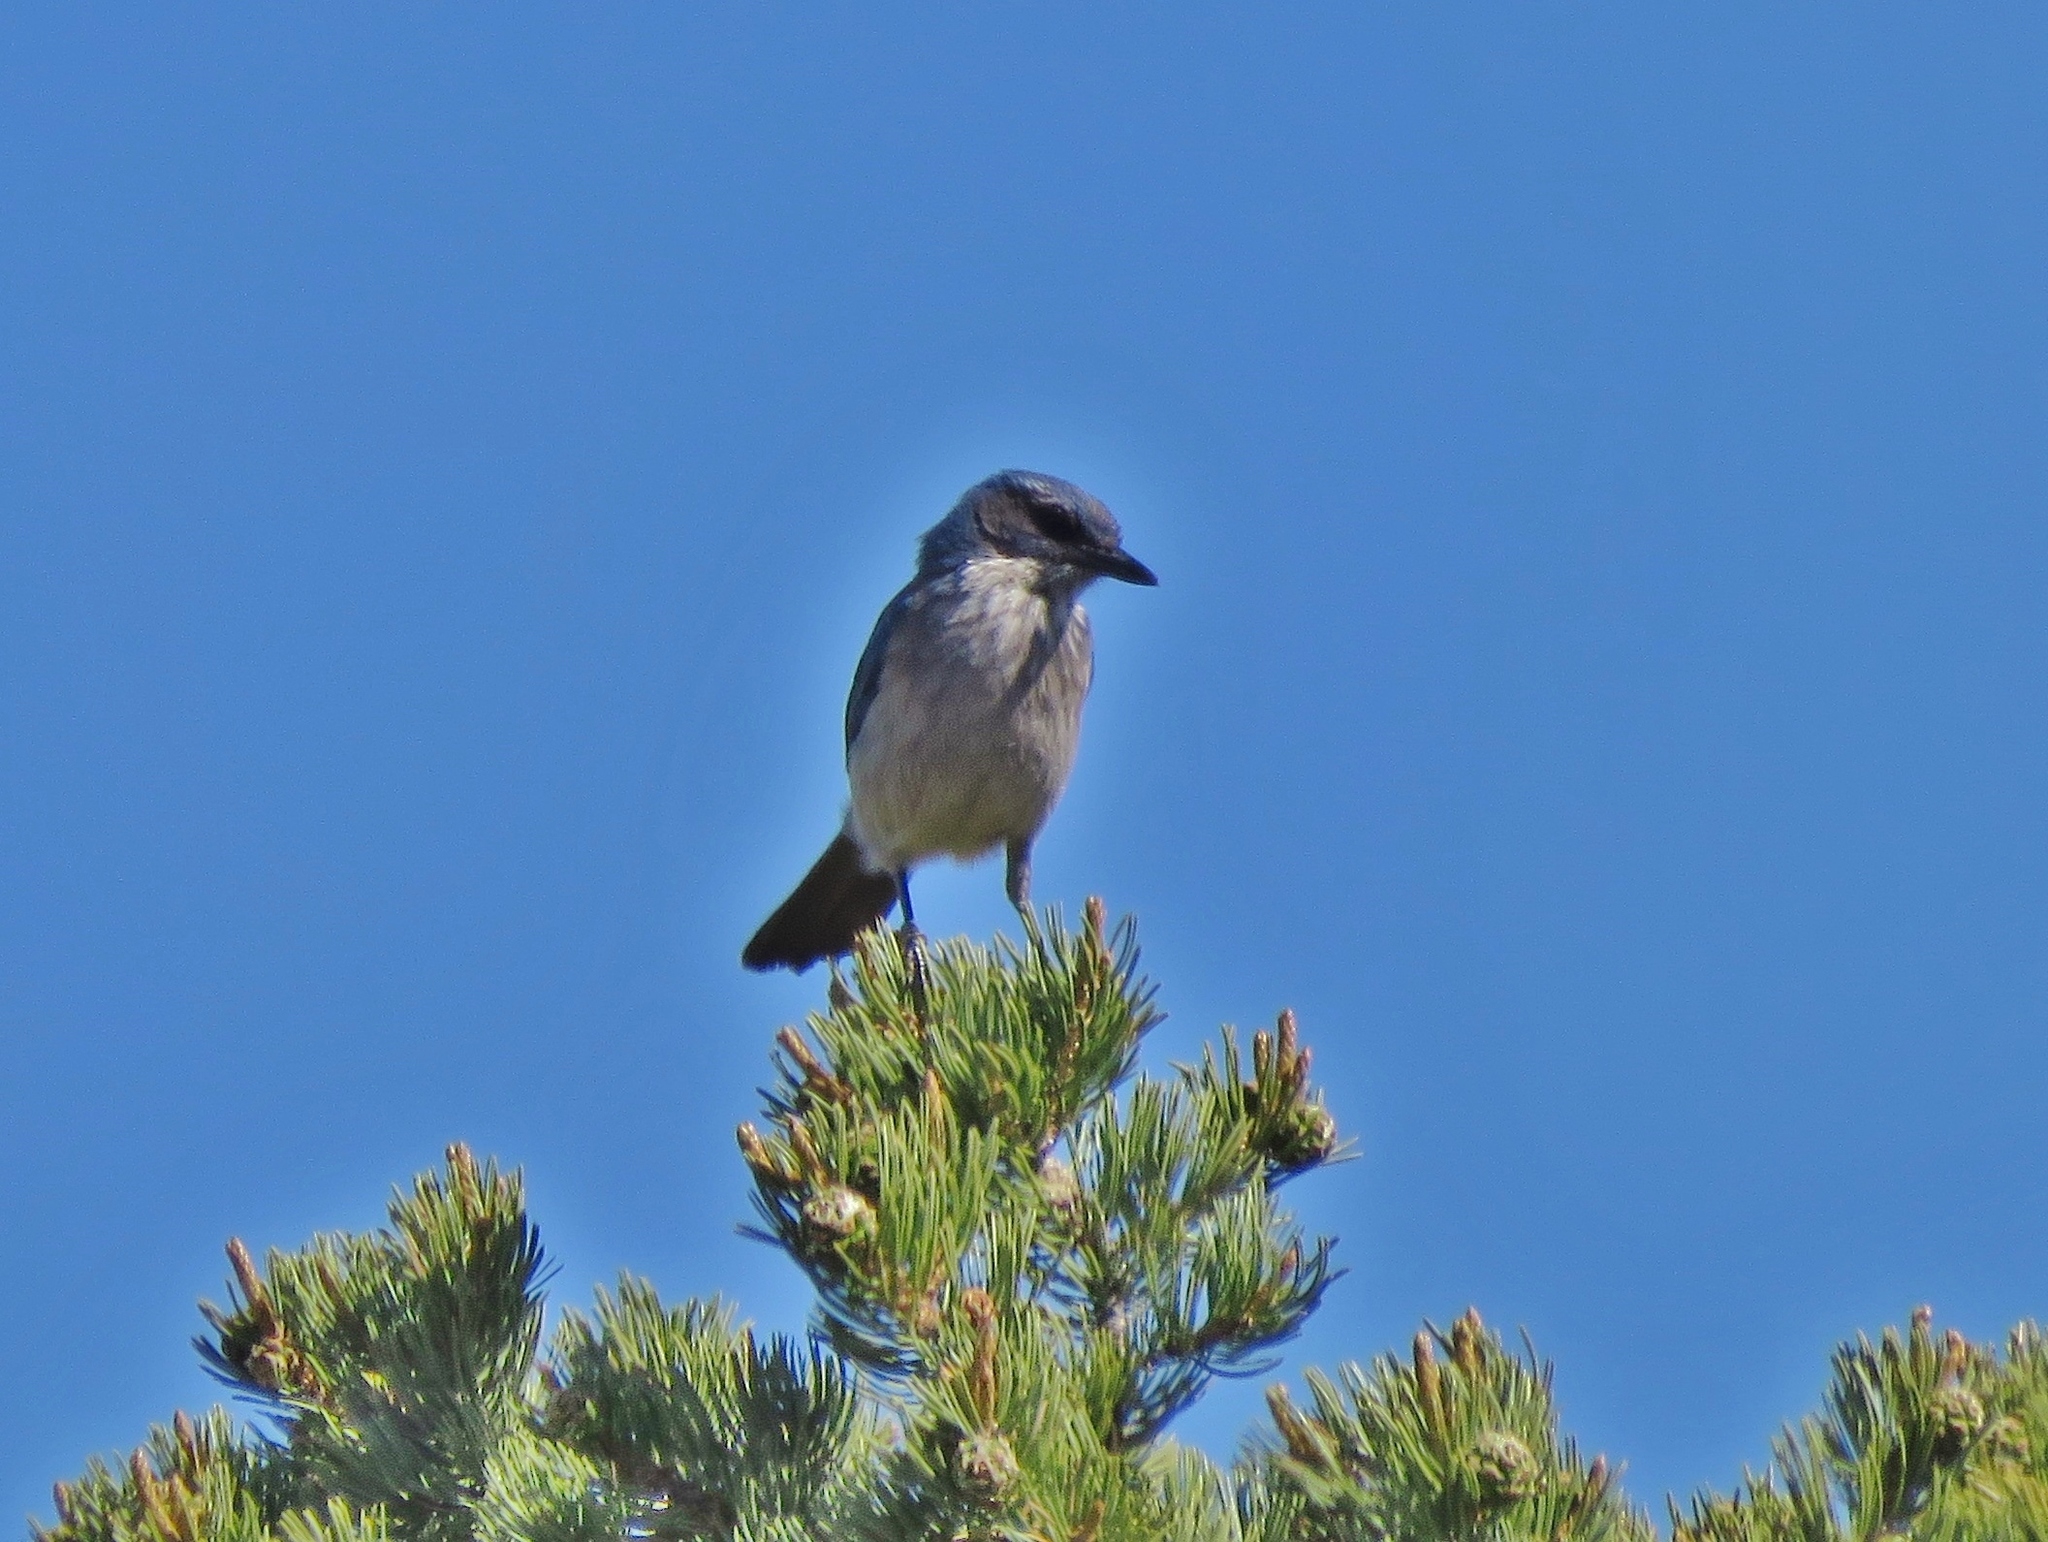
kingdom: Animalia
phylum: Chordata
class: Aves
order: Passeriformes
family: Corvidae
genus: Aphelocoma
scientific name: Aphelocoma woodhouseii
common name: Woodhouse's scrub-jay
